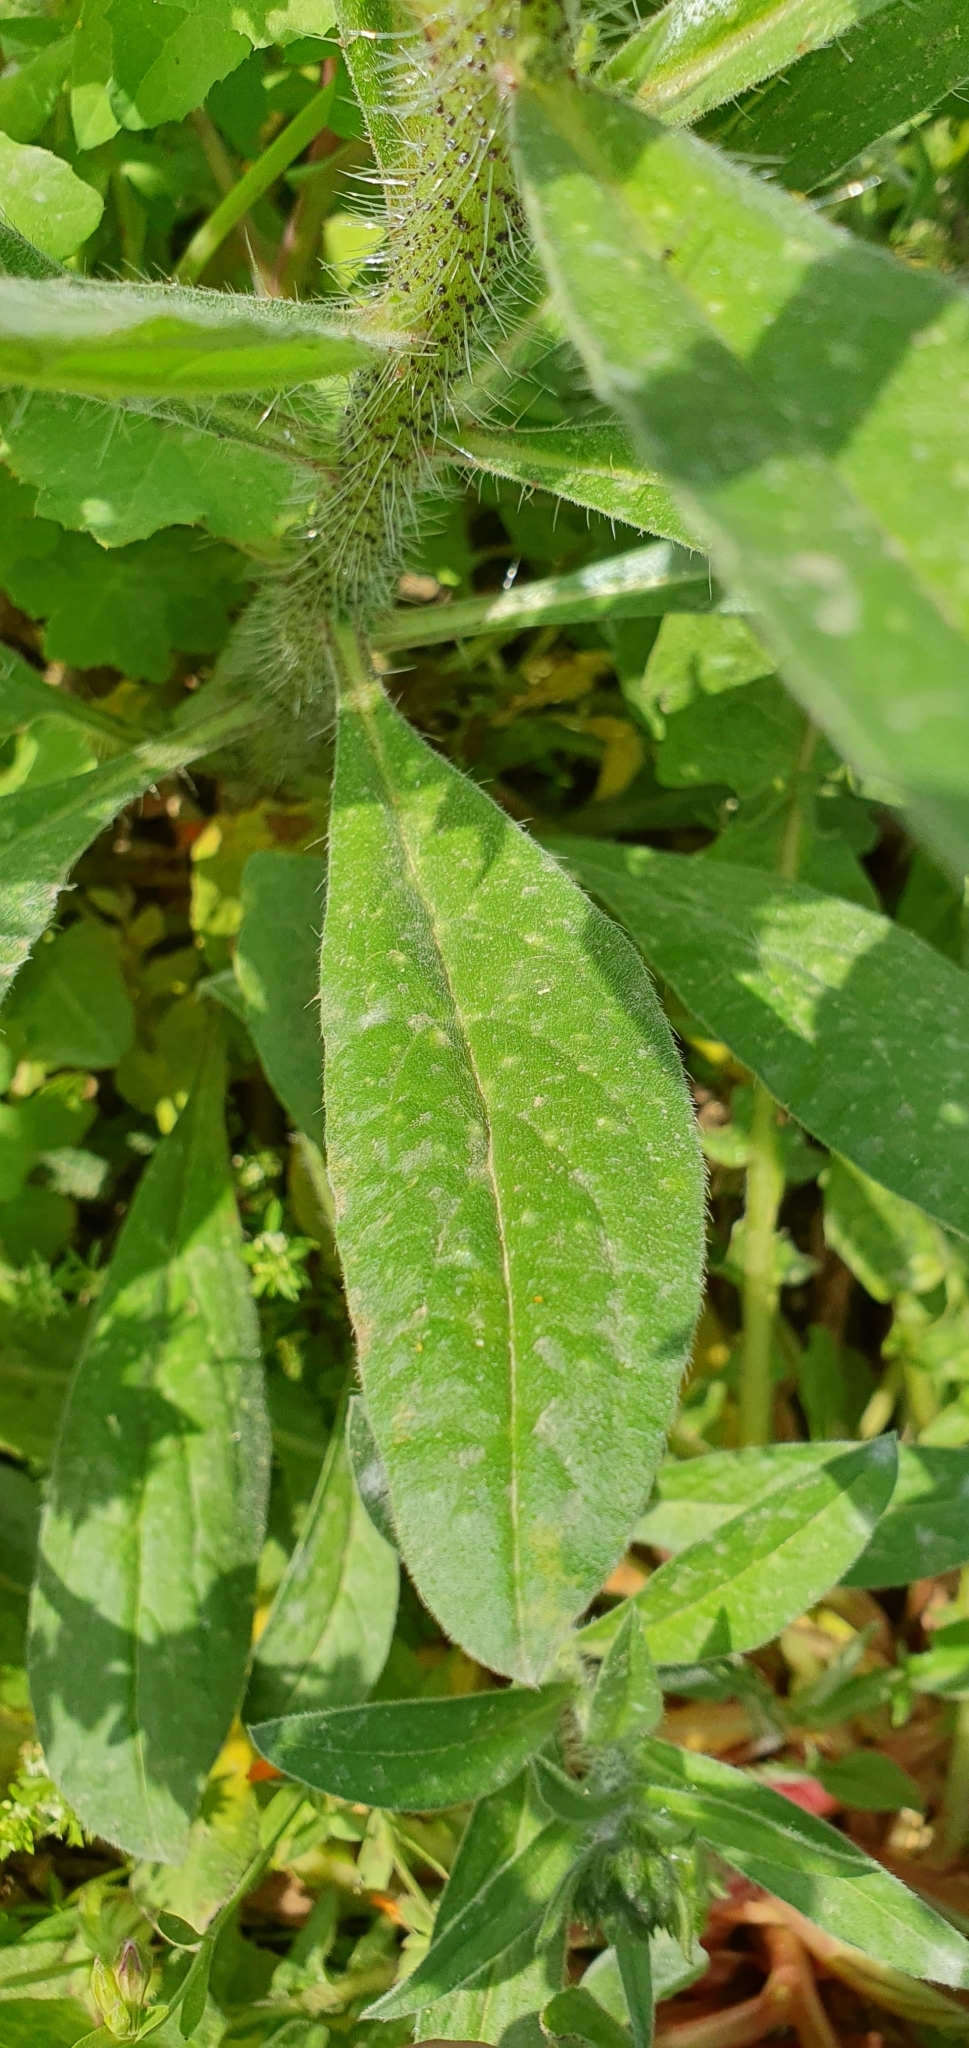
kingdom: Plantae
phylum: Tracheophyta
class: Magnoliopsida
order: Boraginales
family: Boraginaceae
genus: Echium
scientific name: Echium creticum
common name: Cretan viper's bugloss
